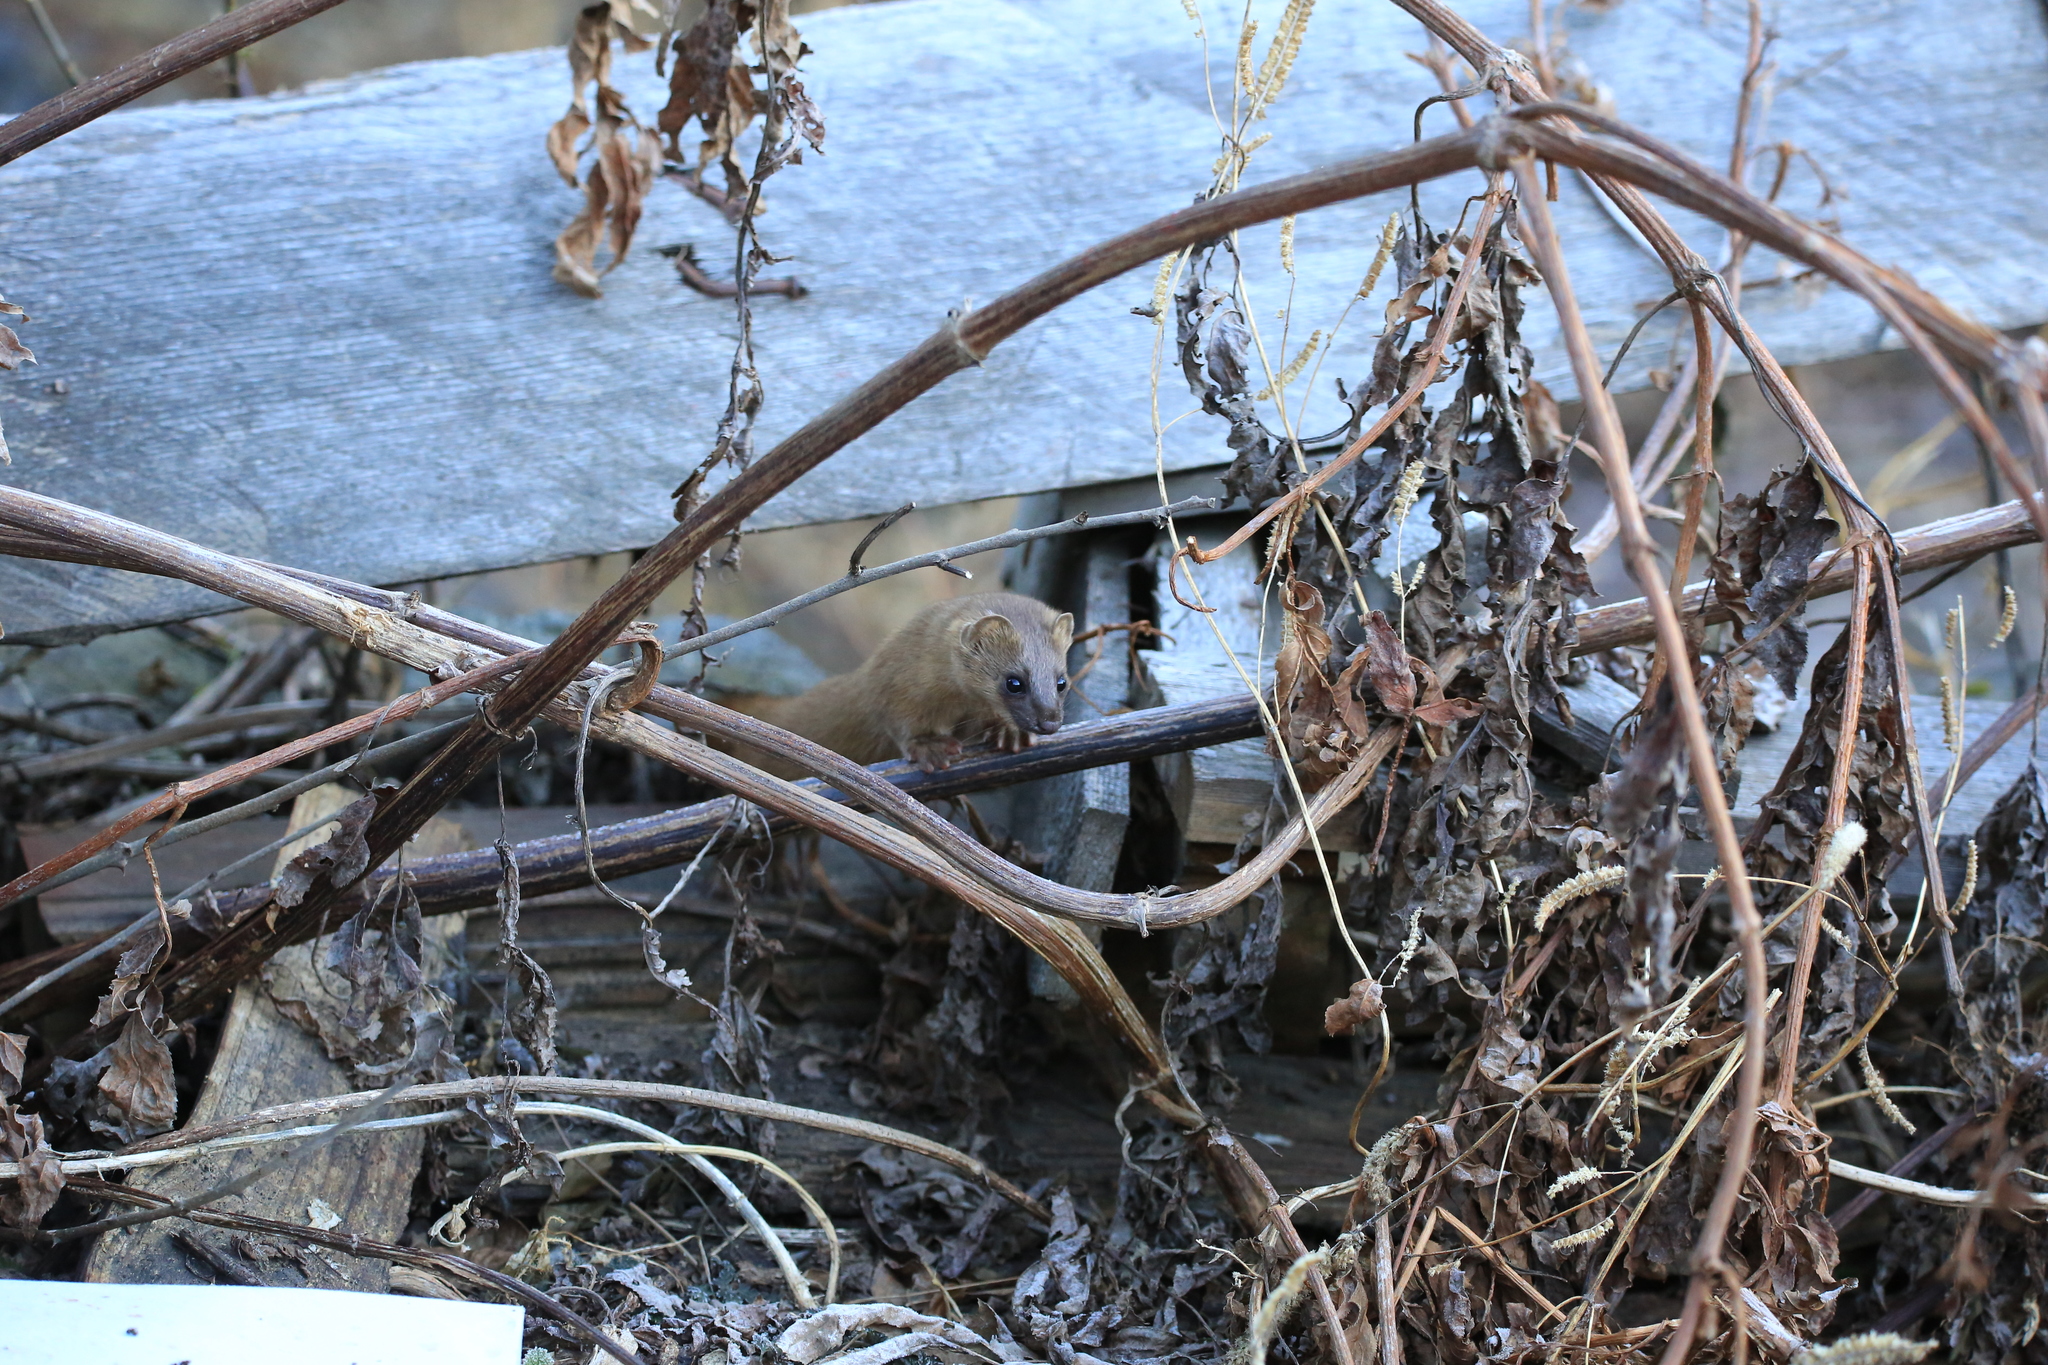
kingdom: Animalia
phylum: Chordata
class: Mammalia
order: Carnivora
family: Mustelidae
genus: Mustela
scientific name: Mustela sibirica
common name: Siberian weasel
